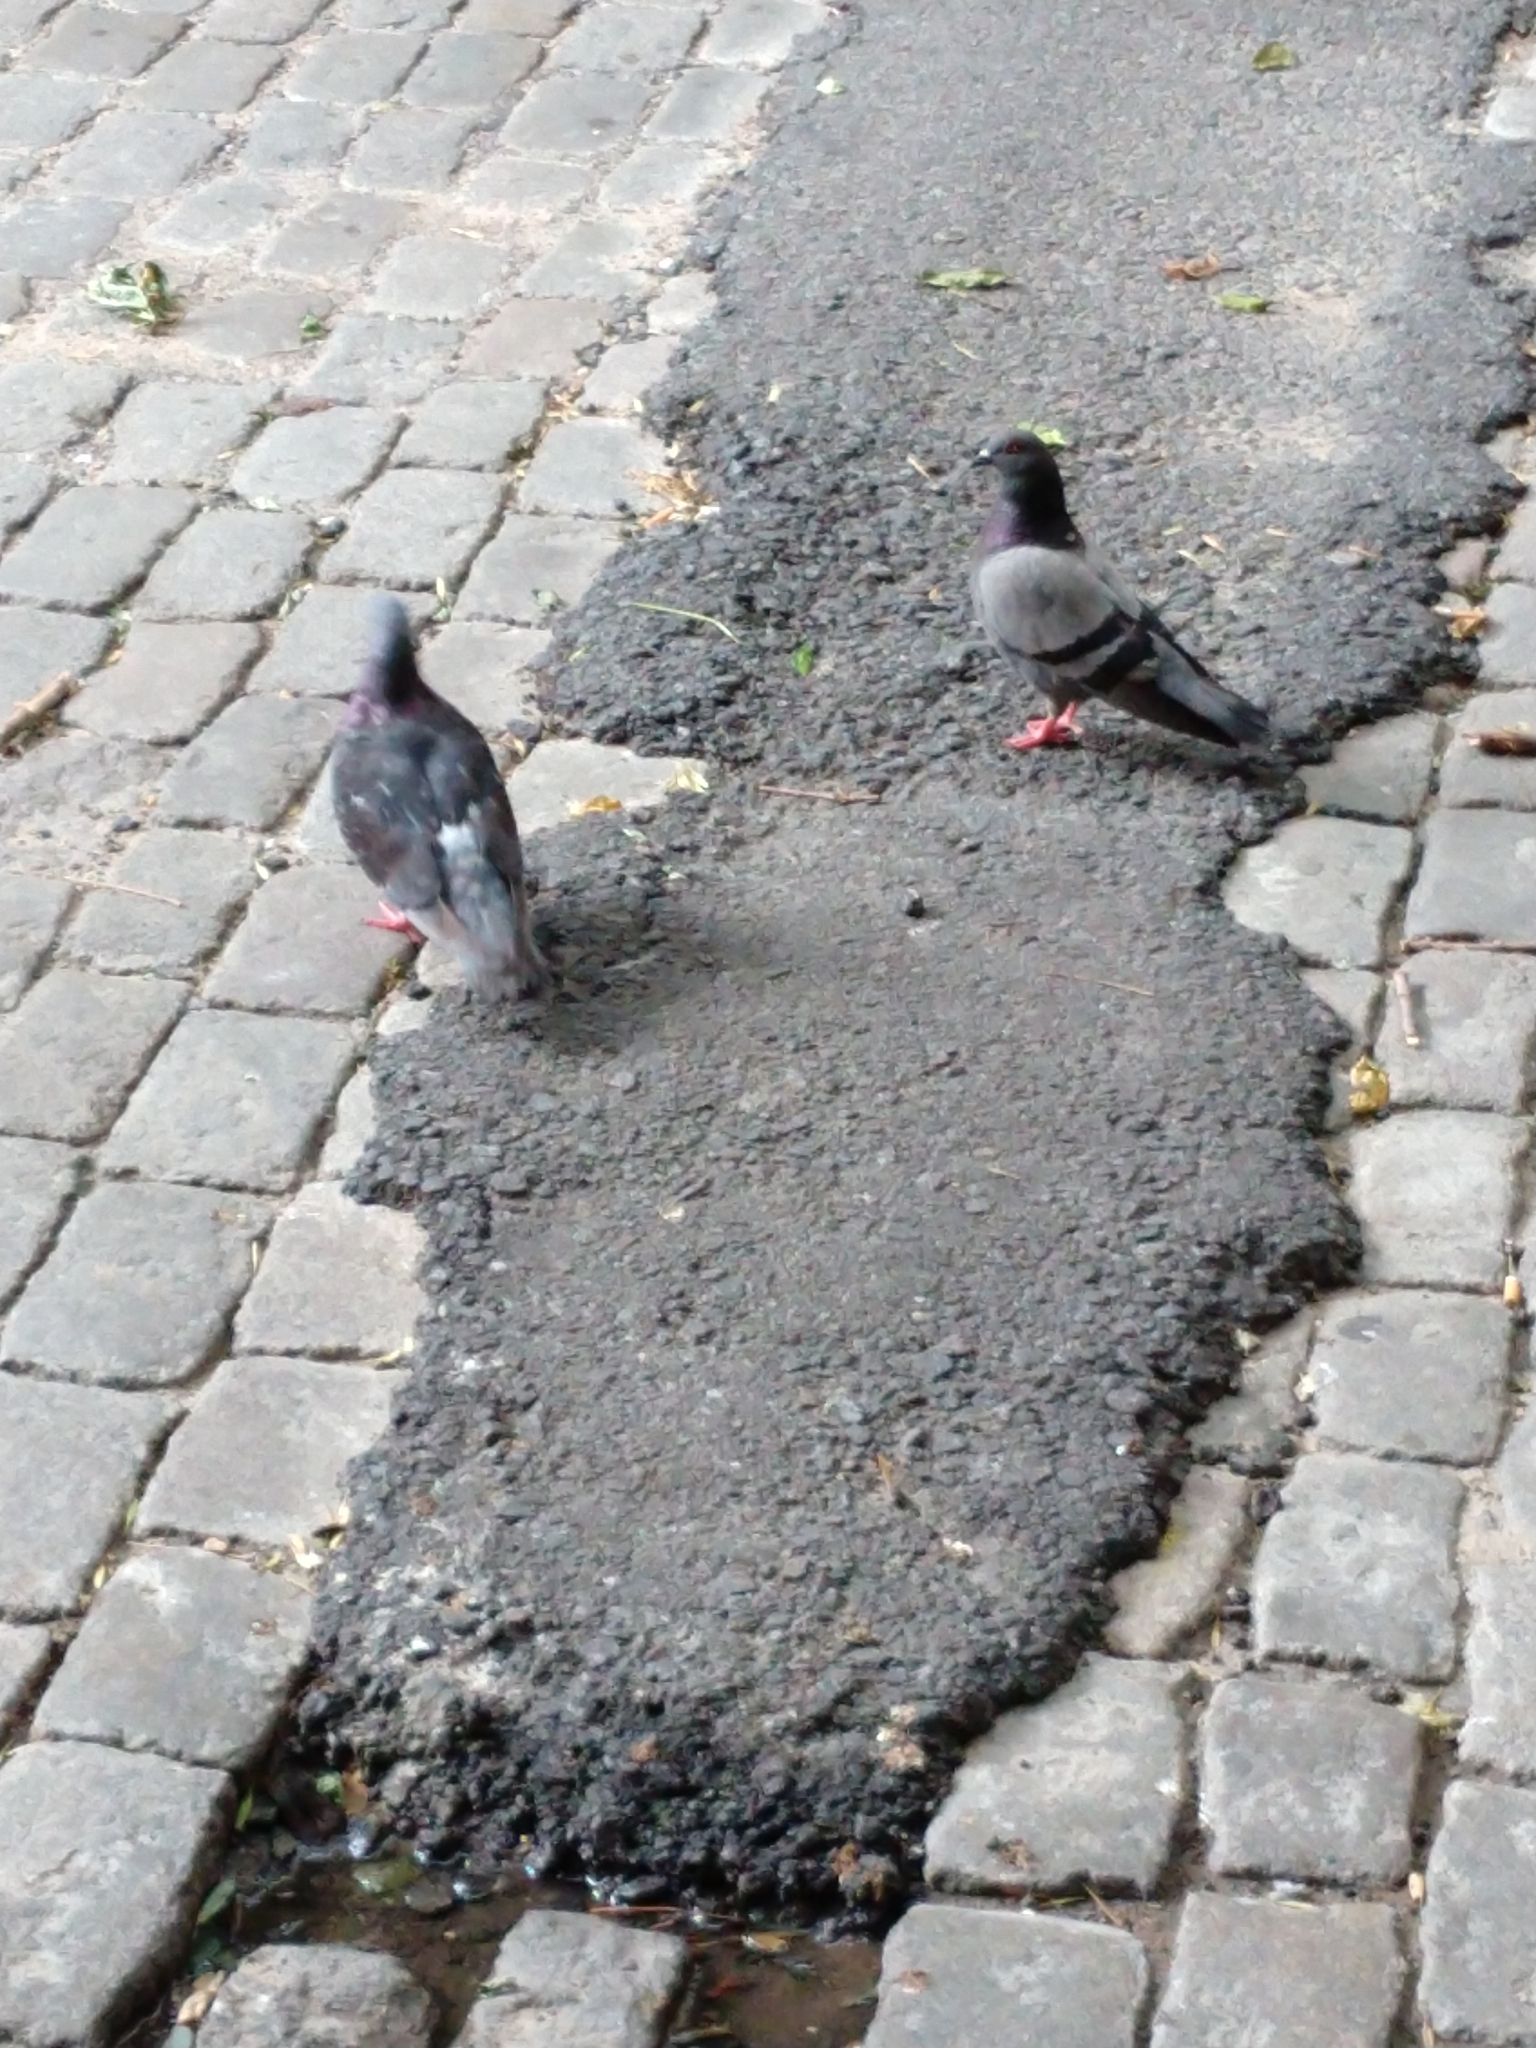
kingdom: Animalia
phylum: Chordata
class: Aves
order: Columbiformes
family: Columbidae
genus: Columba
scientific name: Columba livia
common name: Rock pigeon
